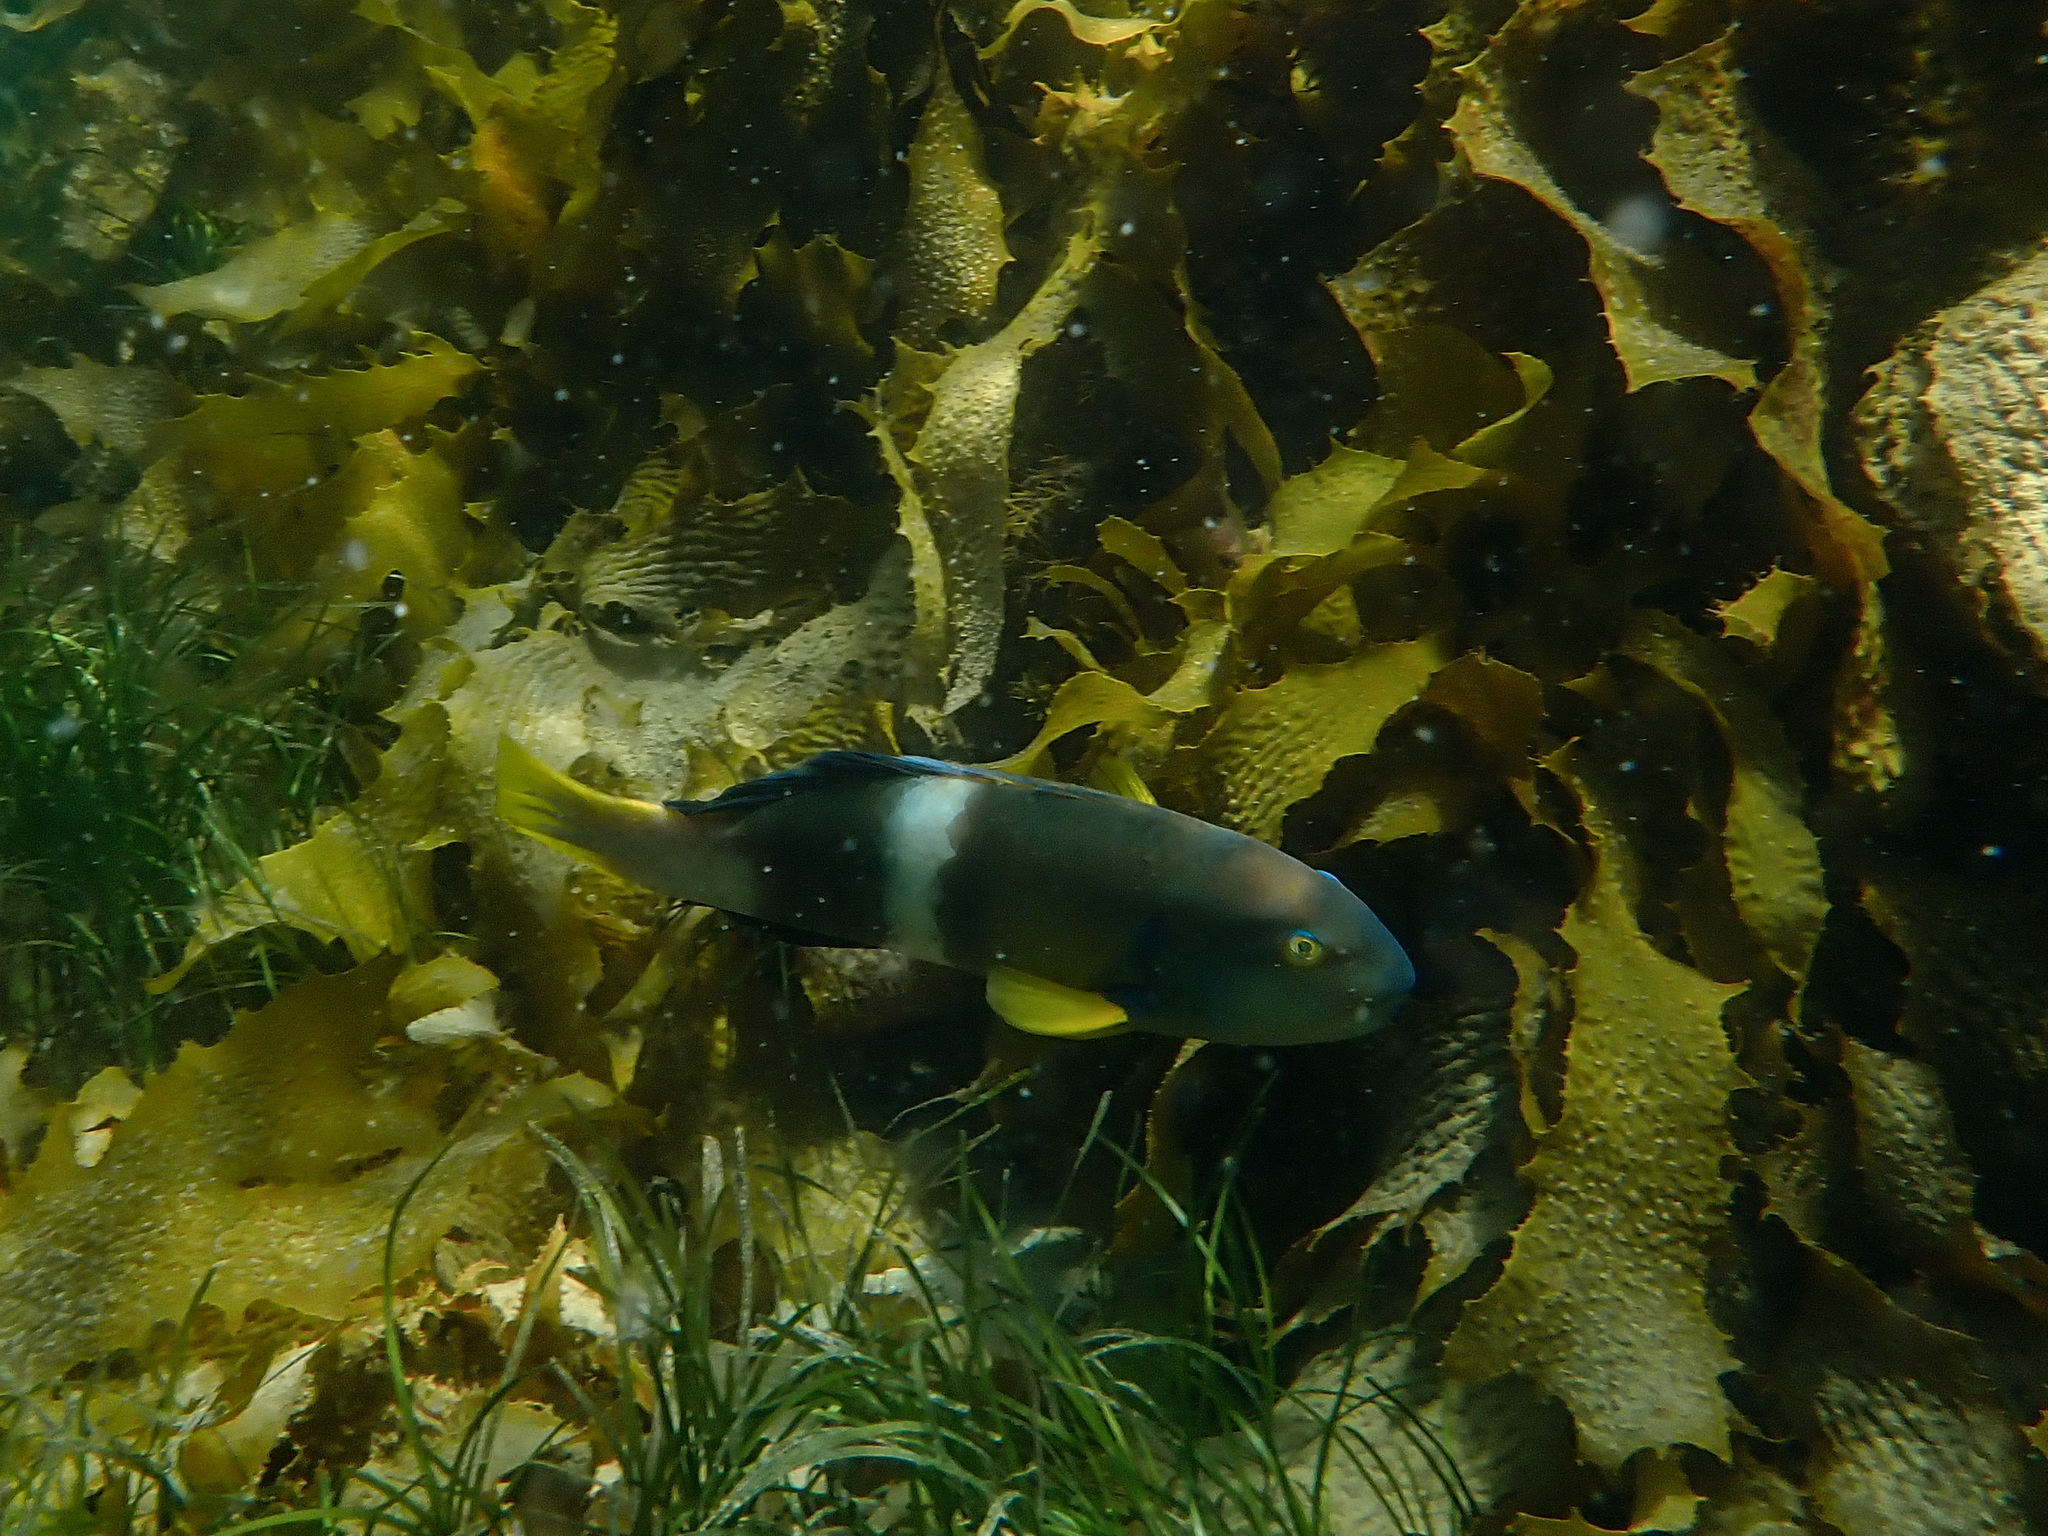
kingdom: Animalia
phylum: Chordata
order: Perciformes
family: Labridae
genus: Notolabrus
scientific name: Notolabrus tetricus
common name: Blue-throated parrotfish
